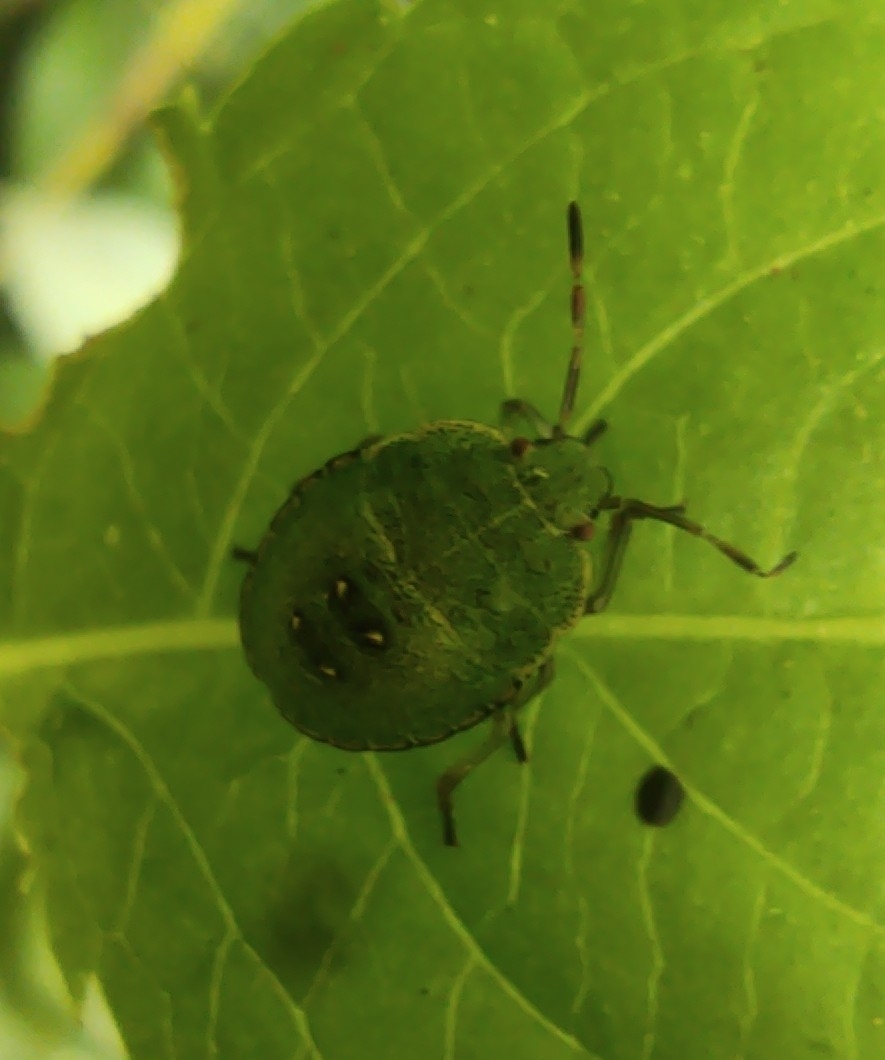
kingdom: Animalia
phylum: Arthropoda
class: Insecta
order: Hemiptera
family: Pentatomidae
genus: Palomena
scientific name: Palomena prasina
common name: Green shieldbug
